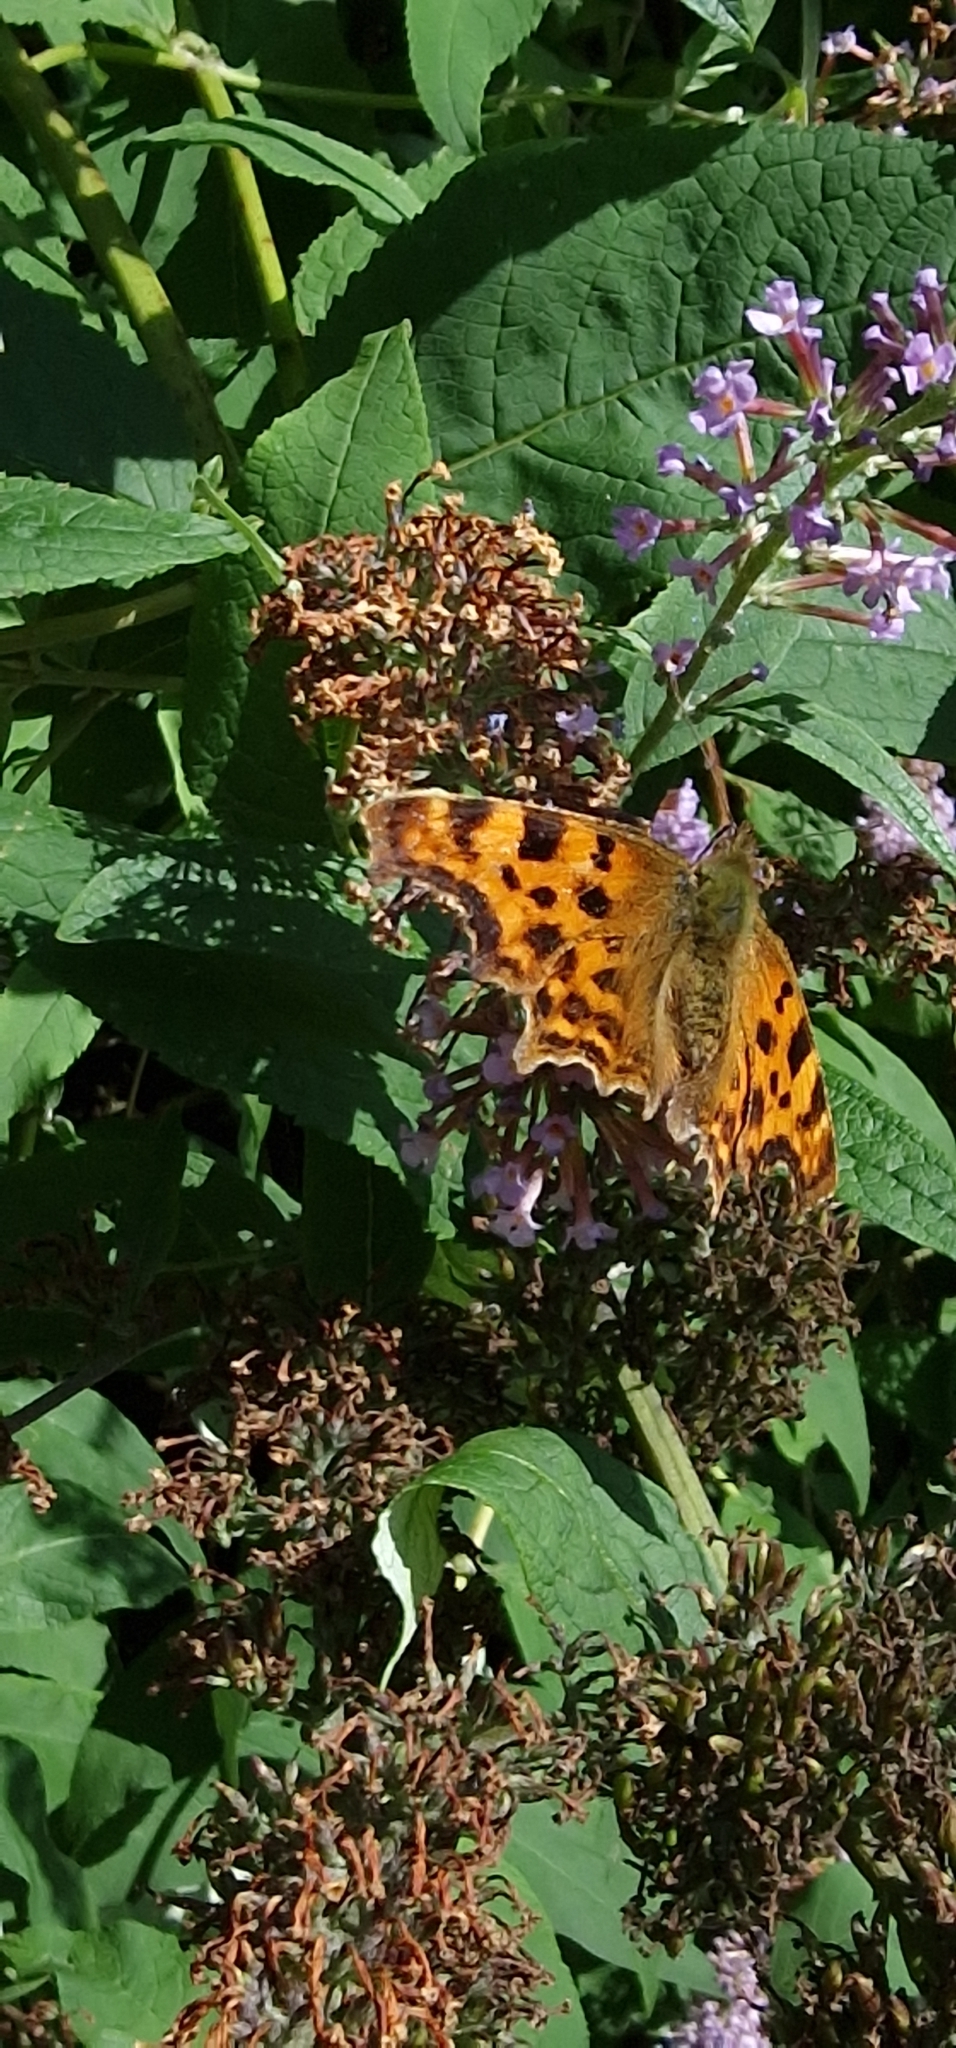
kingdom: Animalia
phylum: Arthropoda
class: Insecta
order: Lepidoptera
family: Nymphalidae
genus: Polygonia
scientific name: Polygonia c-album
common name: Comma
